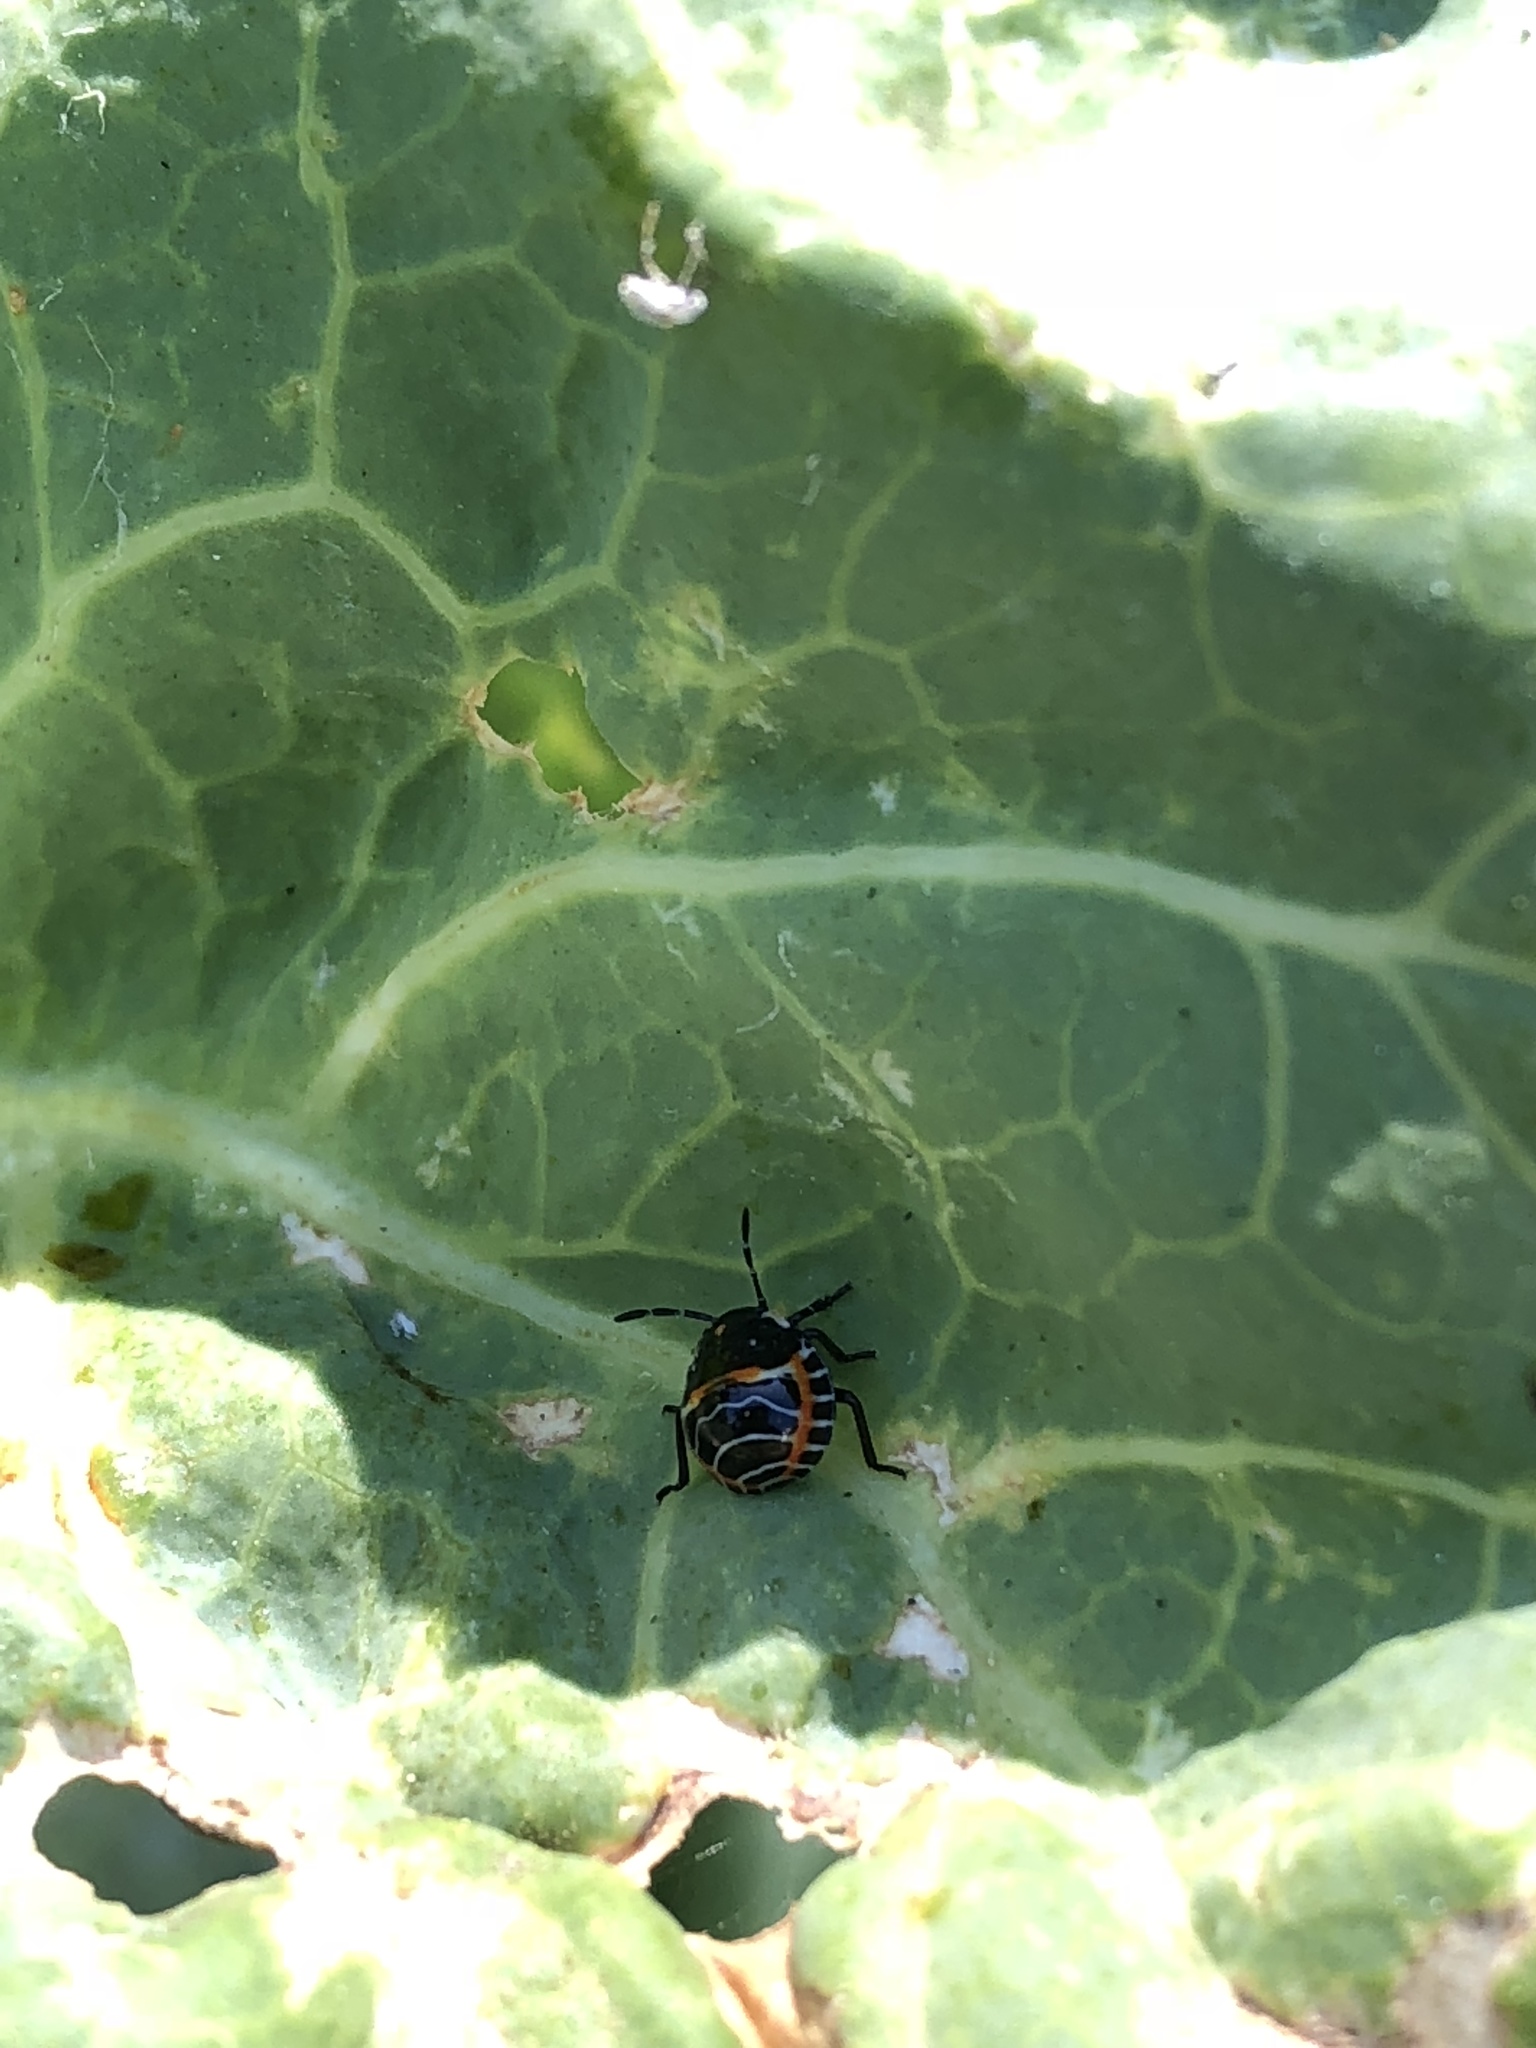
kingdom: Animalia
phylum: Arthropoda
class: Insecta
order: Hemiptera
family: Pentatomidae
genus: Murgantia
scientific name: Murgantia histrionica
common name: Harlequin bug
